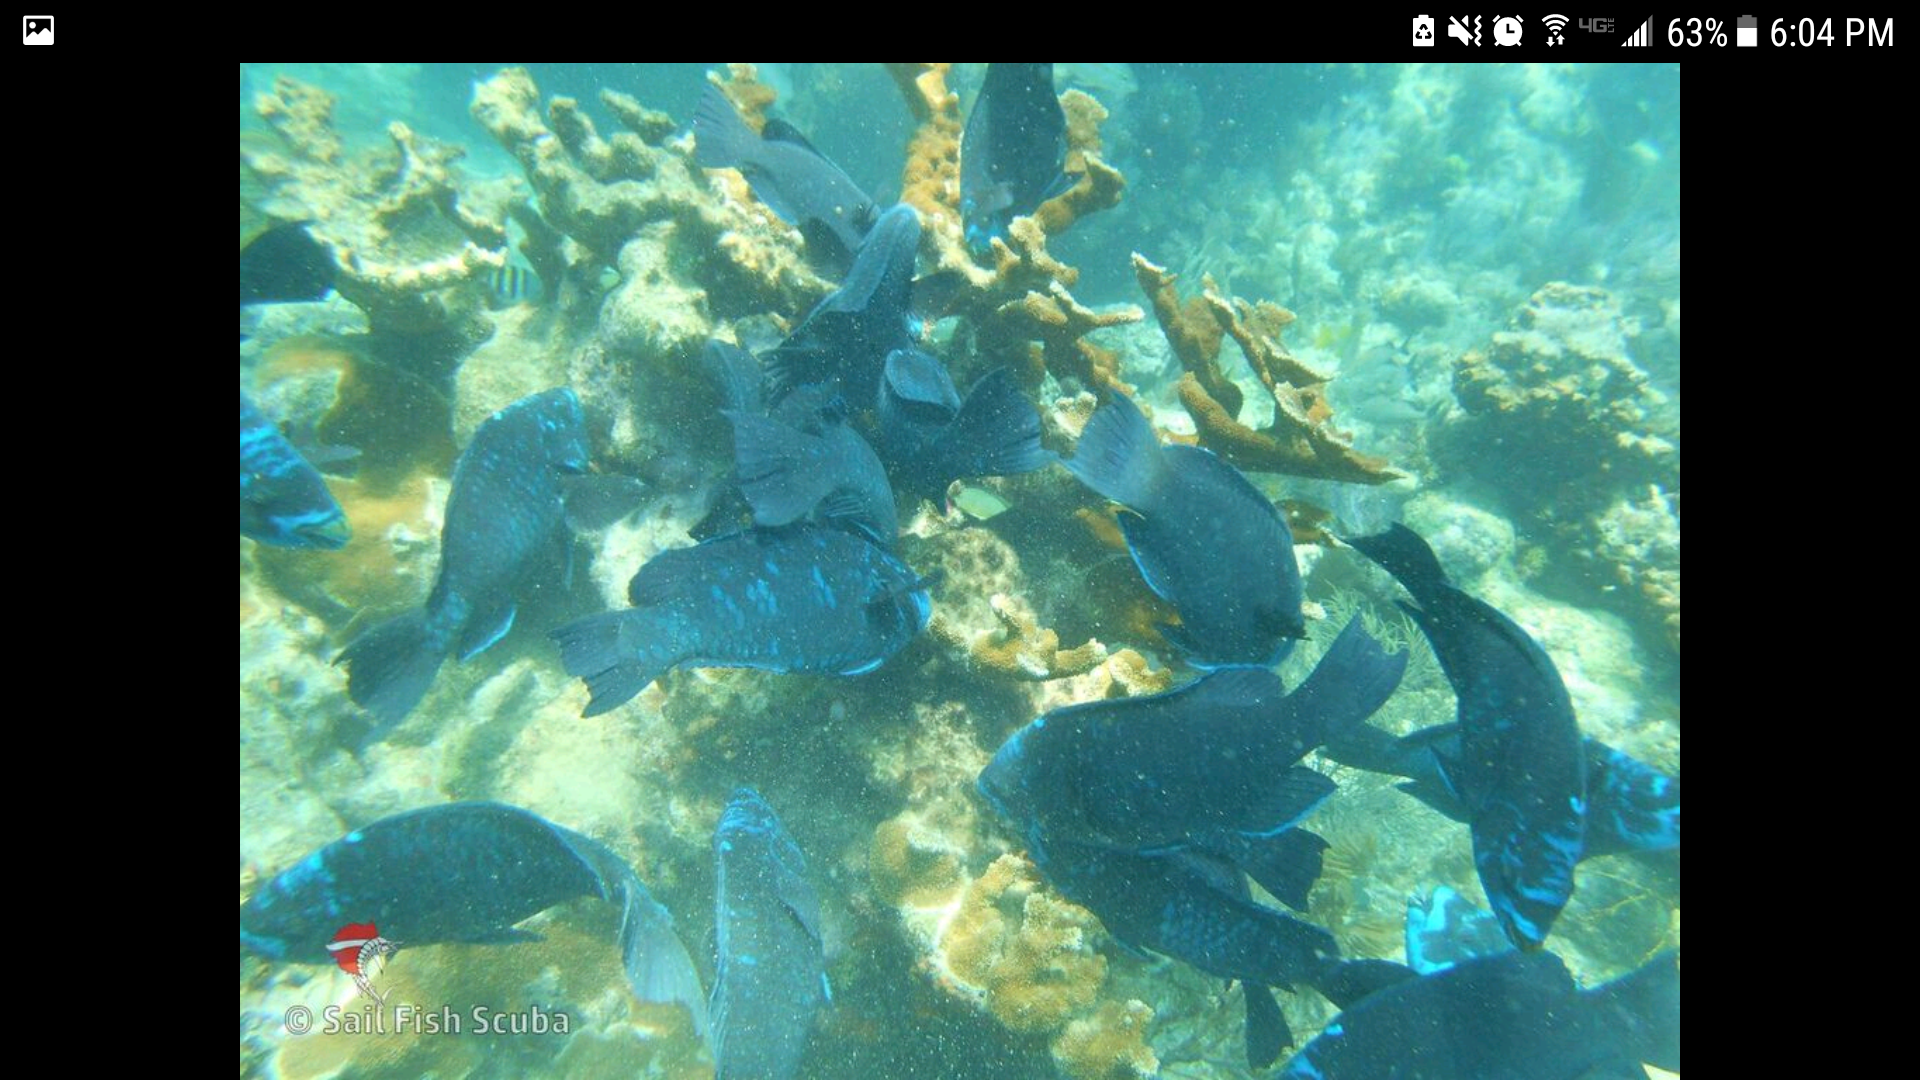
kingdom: Animalia
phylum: Chordata
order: Perciformes
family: Scaridae
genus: Scarus
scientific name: Scarus coelestinus
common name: Midnight parrotfish
